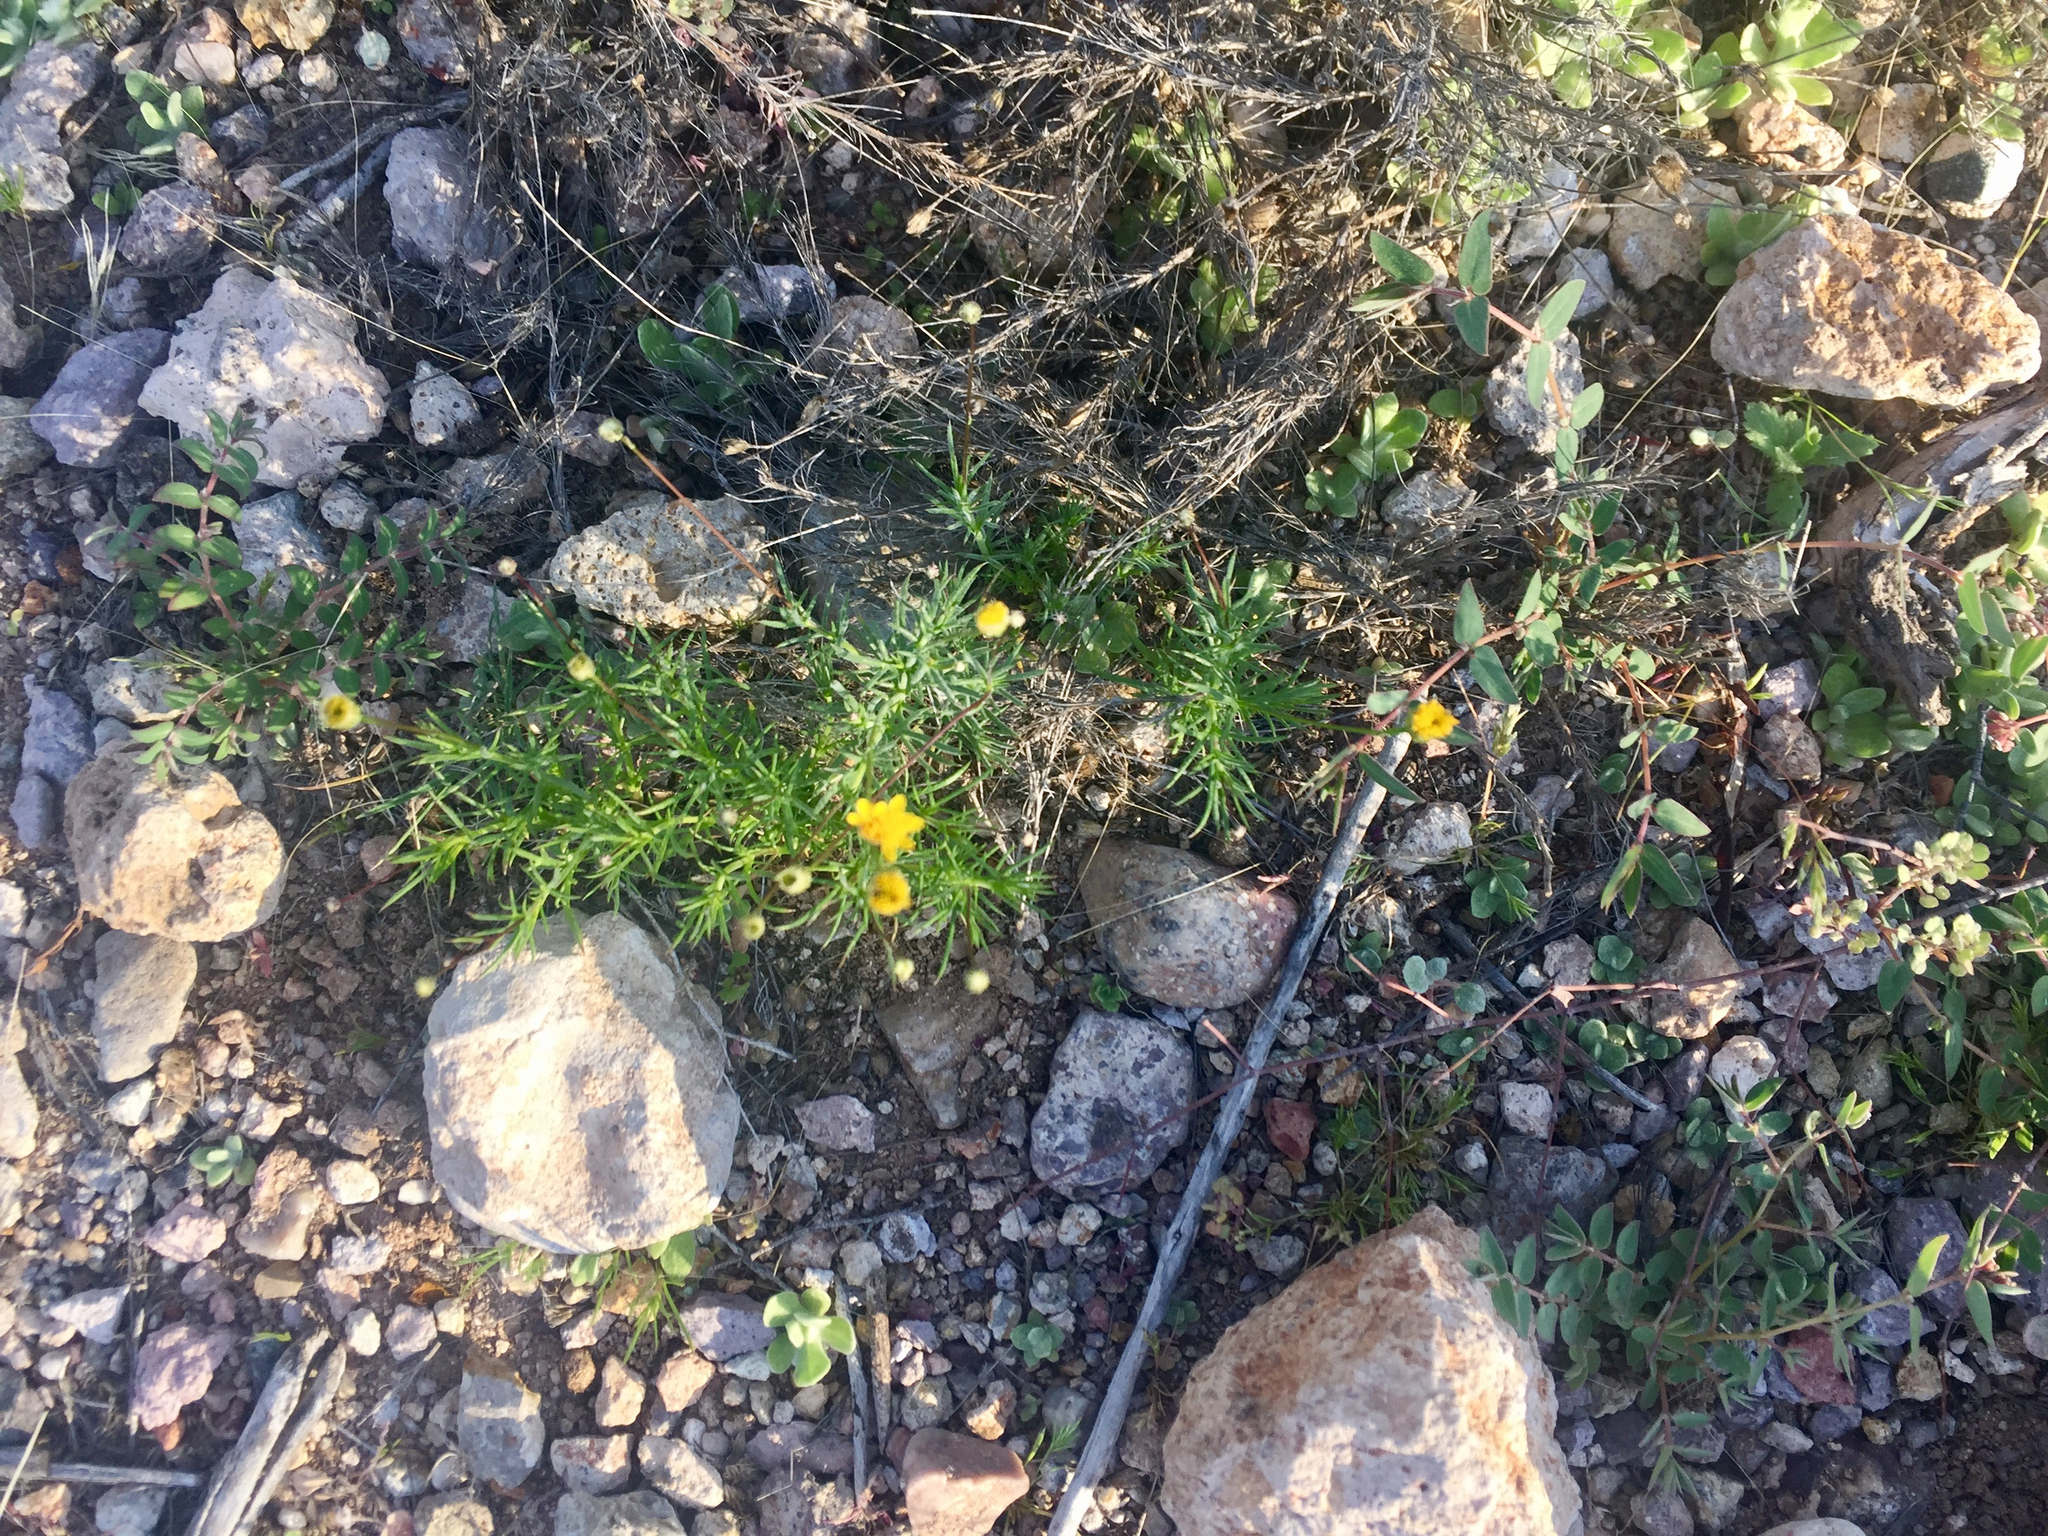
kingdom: Plantae
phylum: Tracheophyta
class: Magnoliopsida
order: Asterales
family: Asteraceae
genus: Thymophylla
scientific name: Thymophylla pentachaeta
